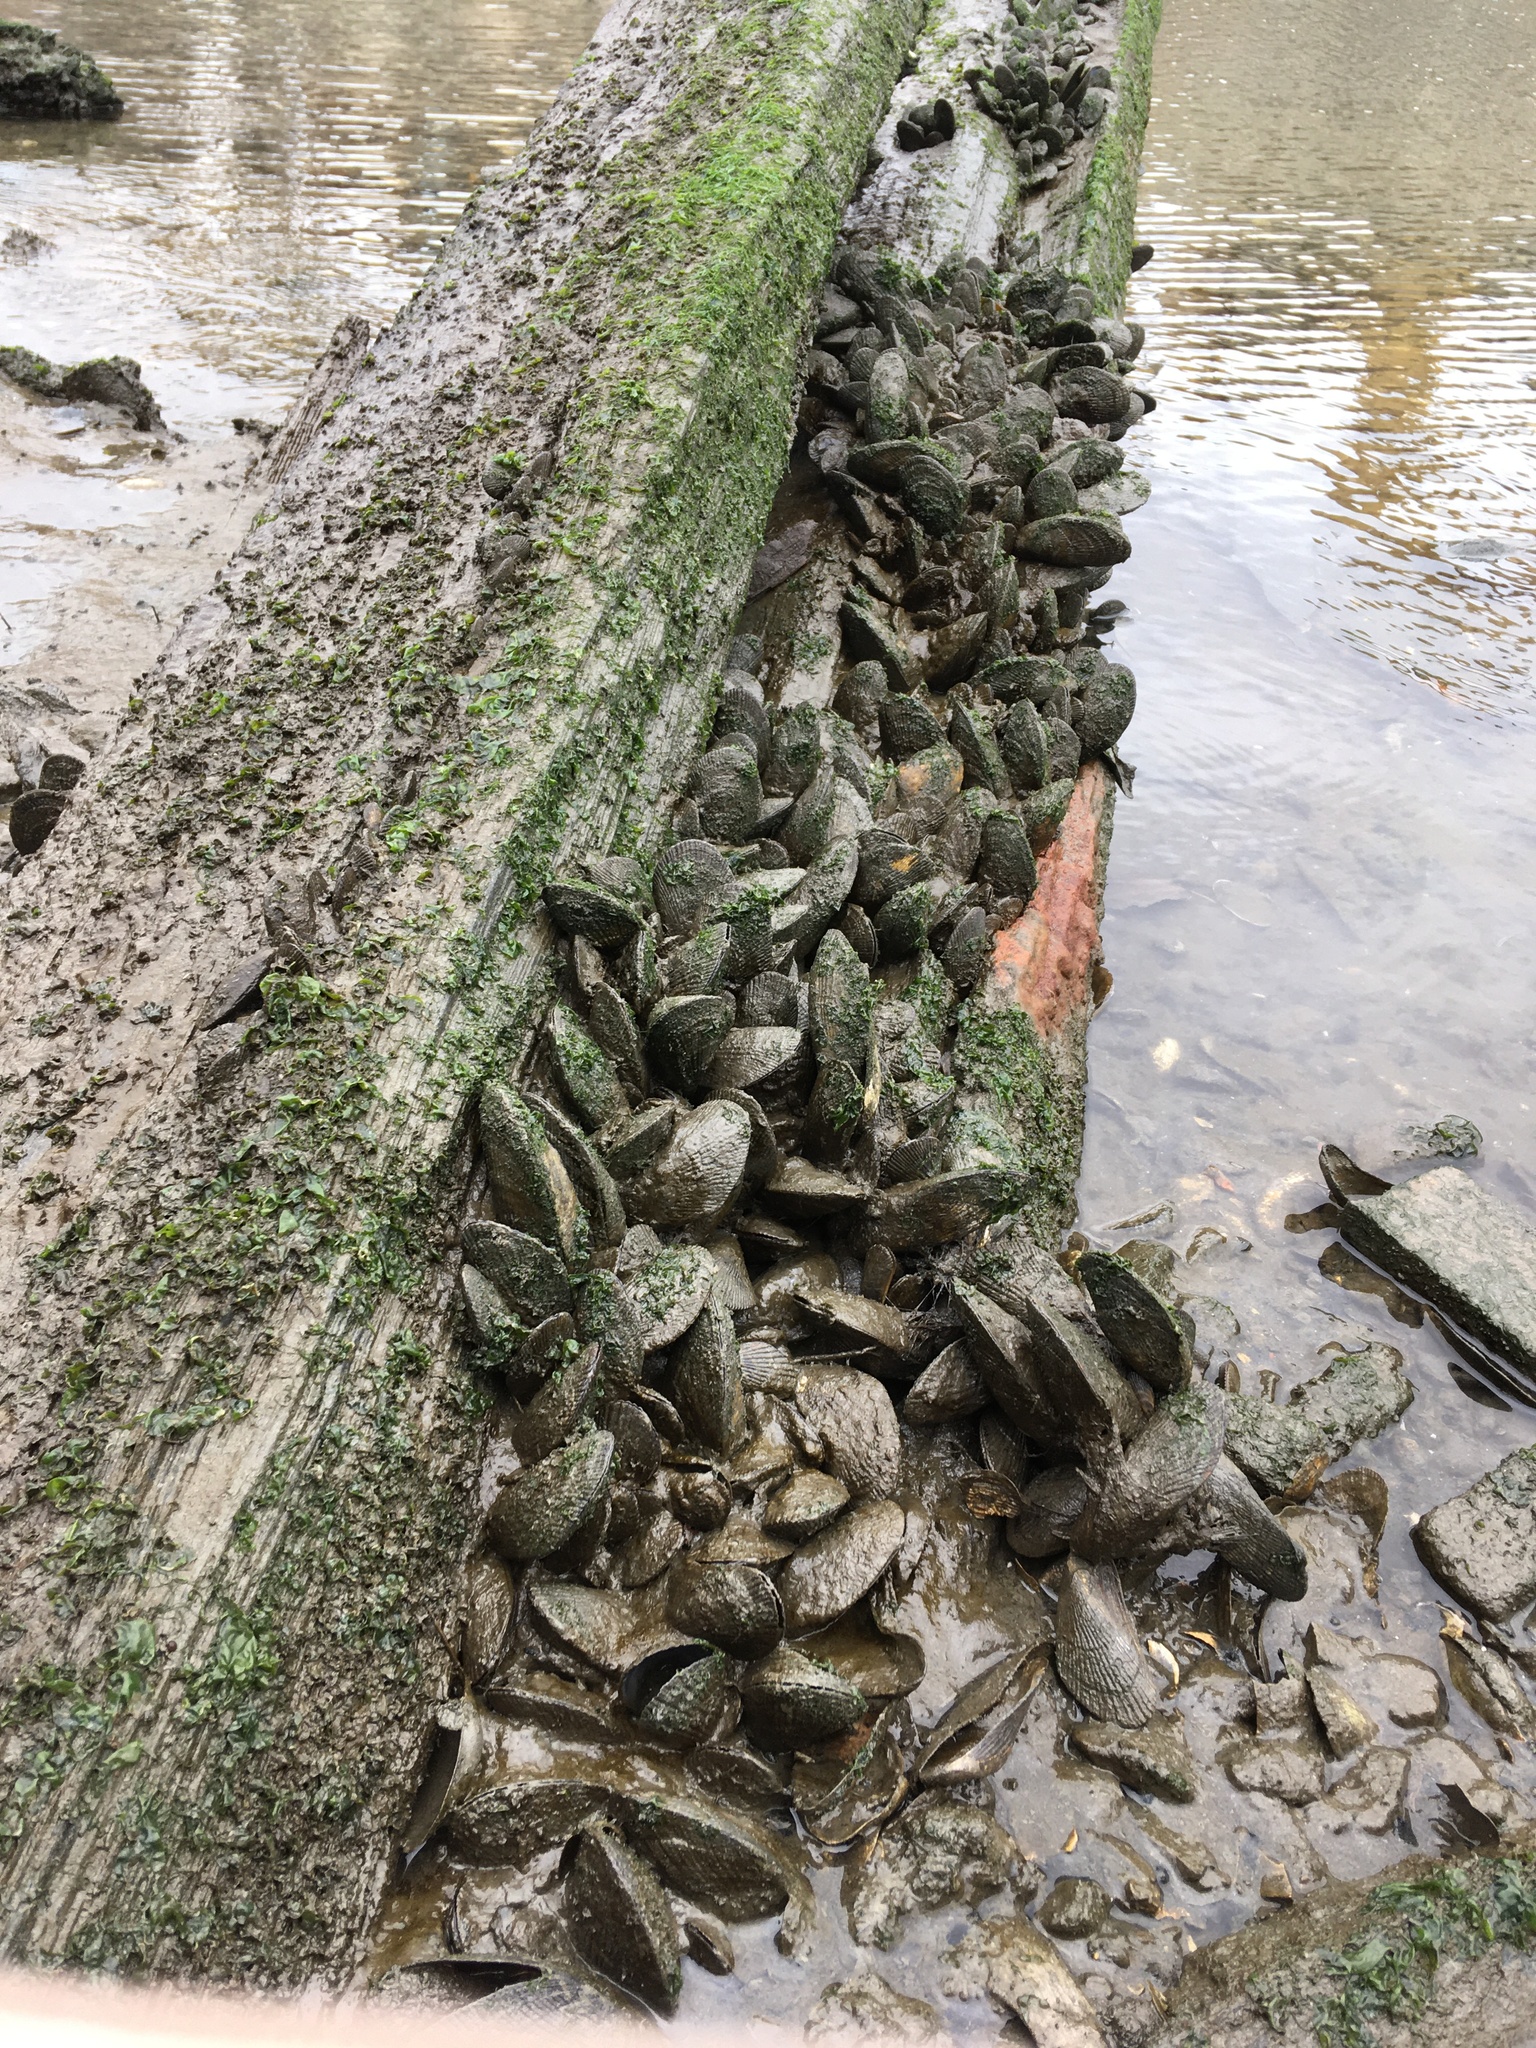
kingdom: Animalia
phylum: Mollusca
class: Bivalvia
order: Mytilida
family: Mytilidae
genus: Geukensia
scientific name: Geukensia demissa
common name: Ribbed mussel
